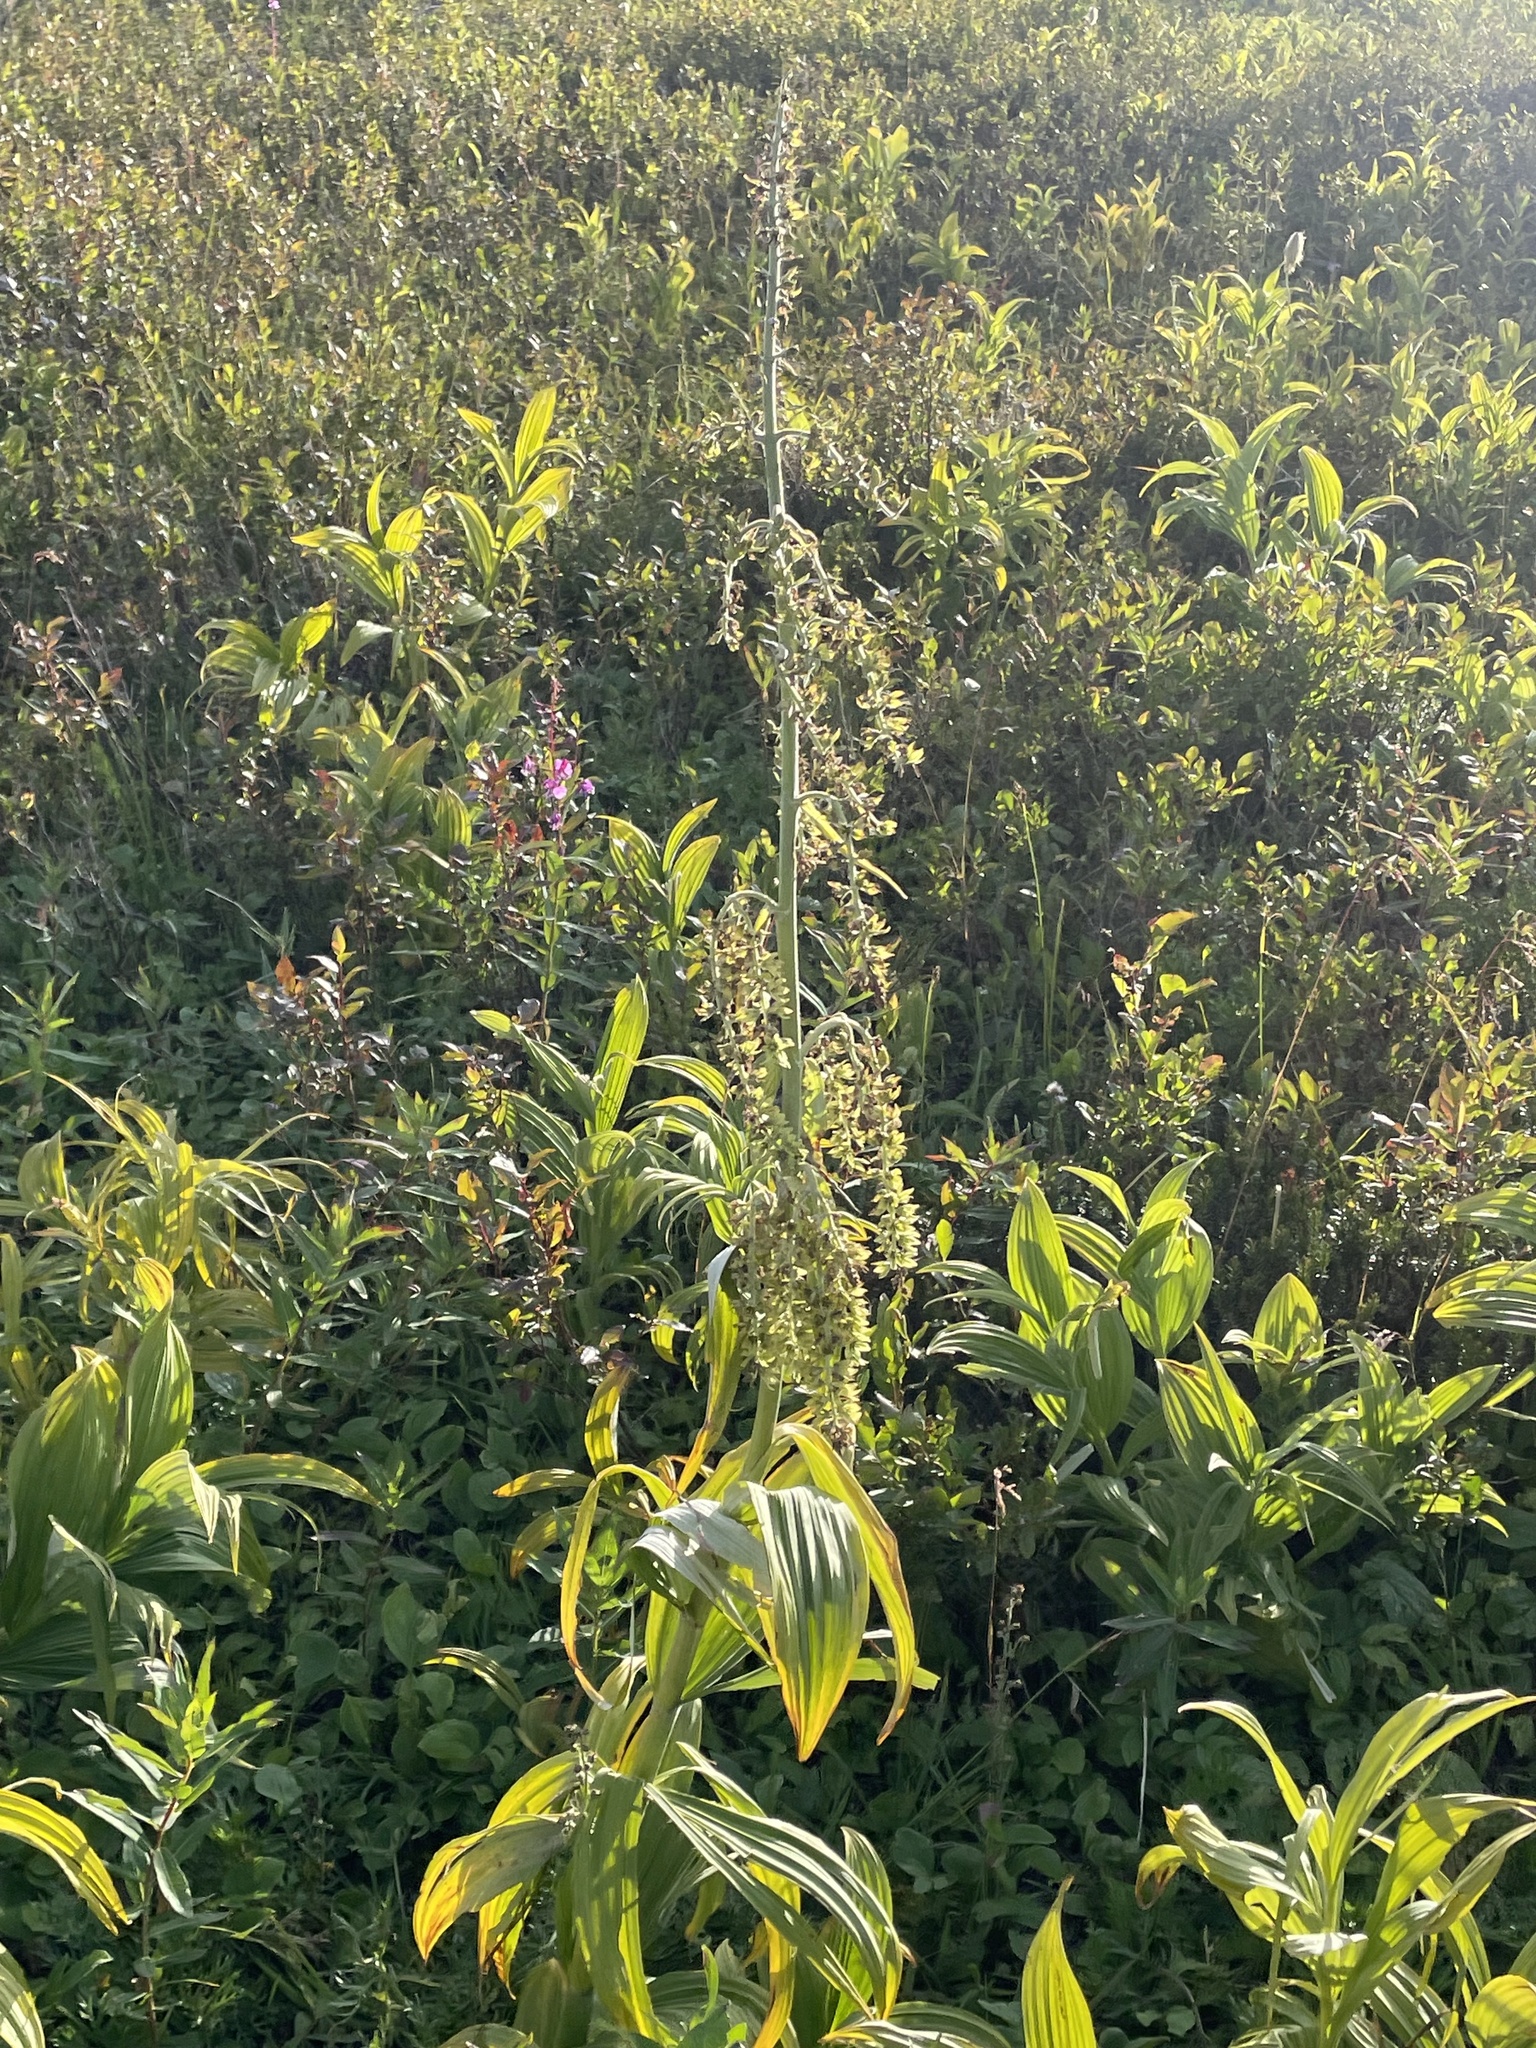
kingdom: Plantae
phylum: Tracheophyta
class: Liliopsida
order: Liliales
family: Melanthiaceae
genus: Veratrum
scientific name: Veratrum viride
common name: American false hellebore
